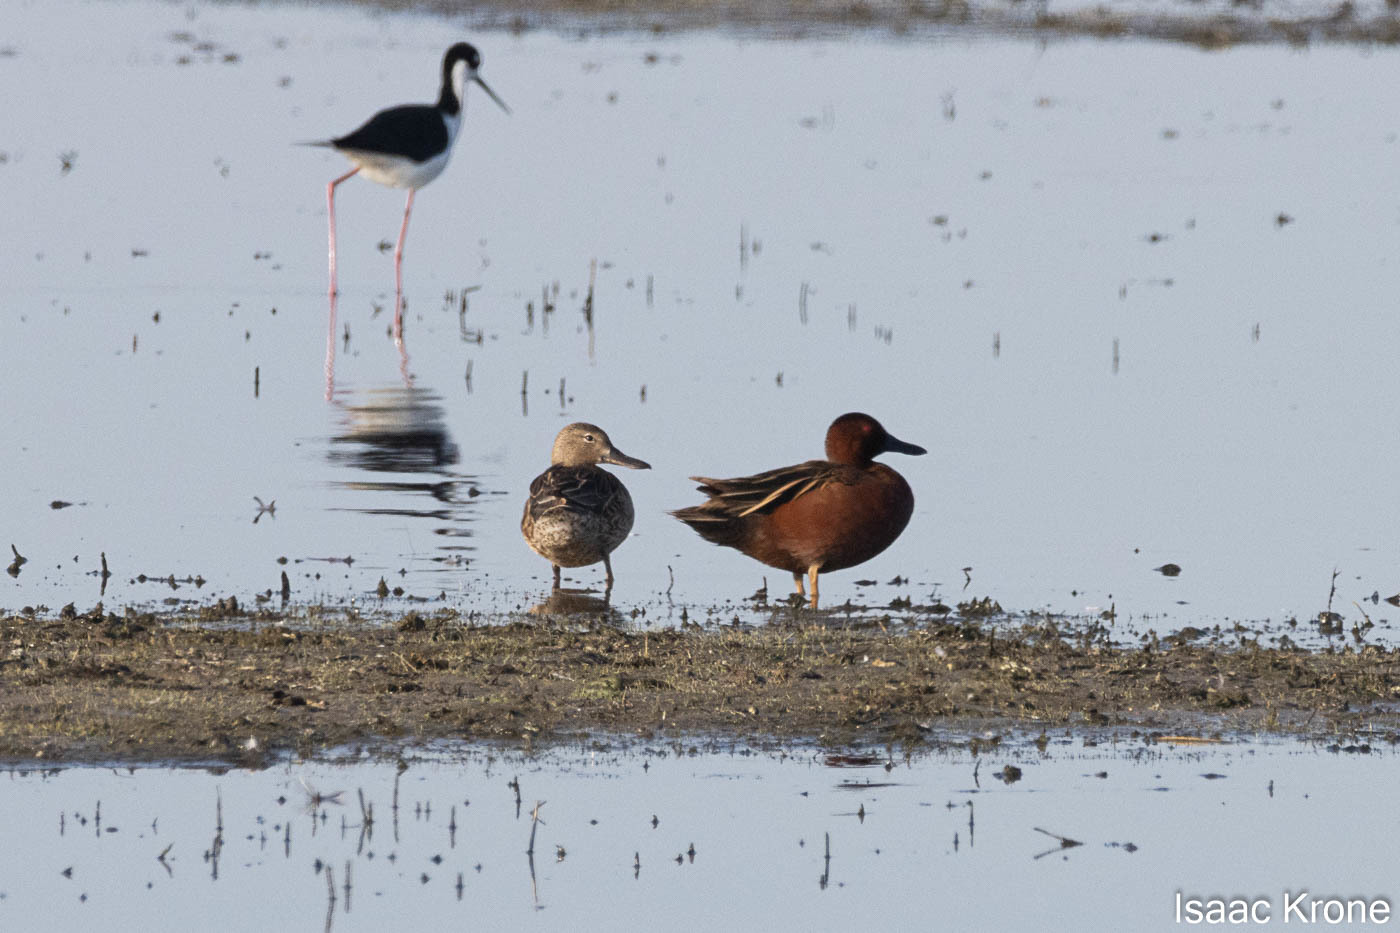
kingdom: Animalia
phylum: Chordata
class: Aves
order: Anseriformes
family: Anatidae
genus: Spatula
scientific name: Spatula cyanoptera
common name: Cinnamon teal
